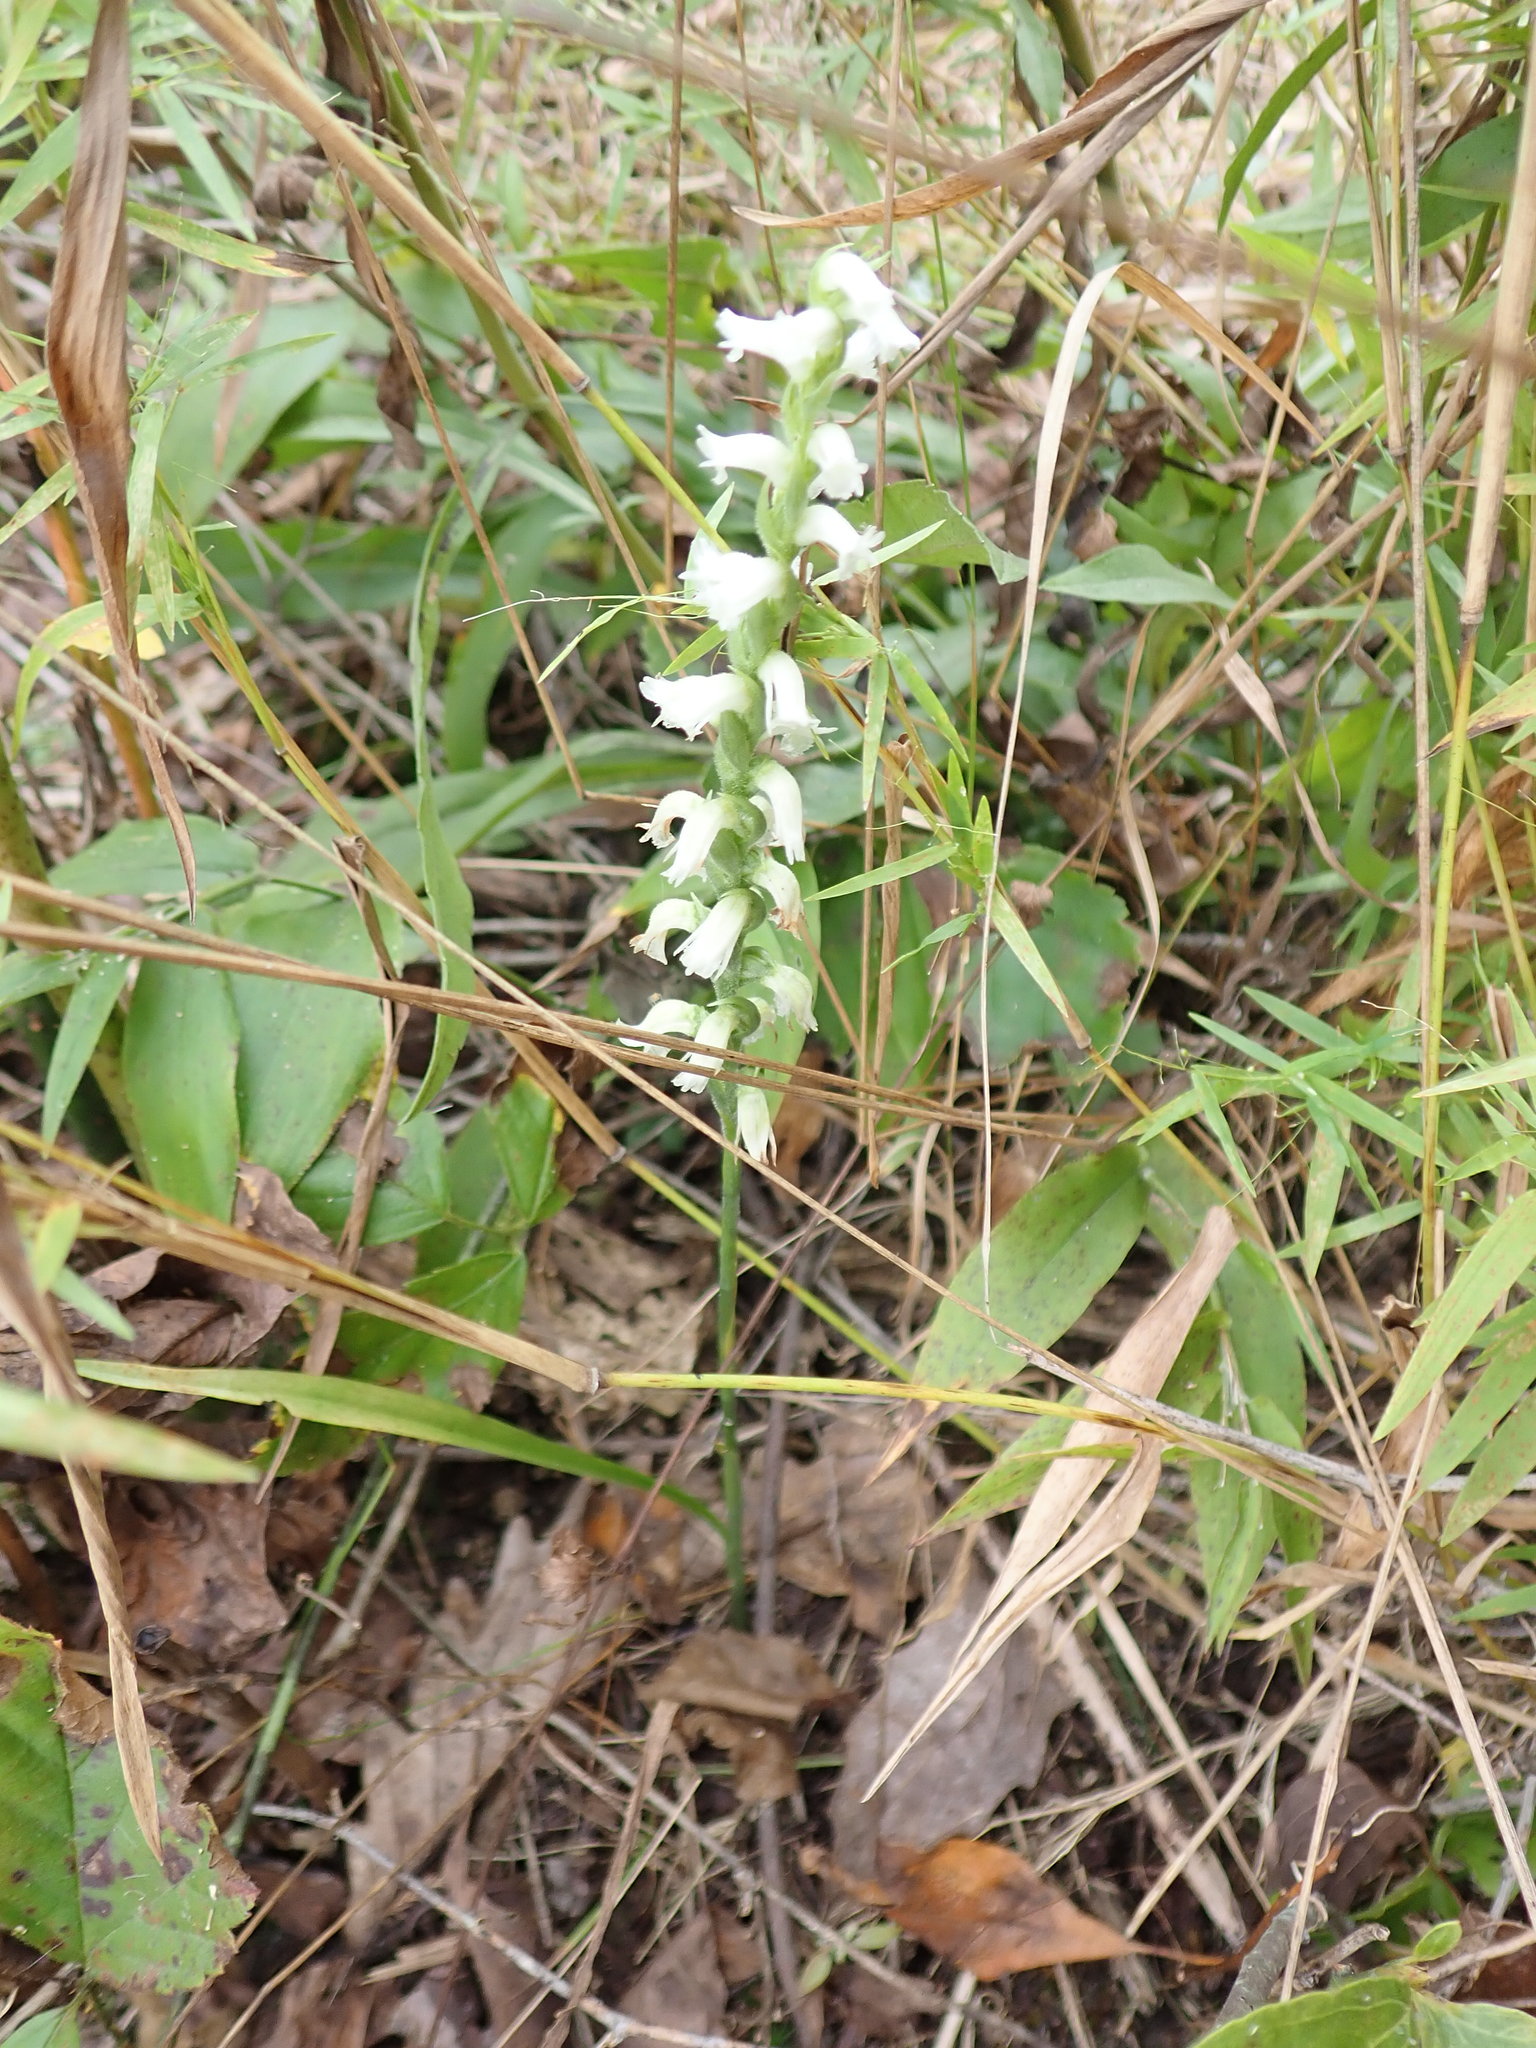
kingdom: Plantae
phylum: Tracheophyta
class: Liliopsida
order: Asparagales
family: Orchidaceae
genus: Spiranthes
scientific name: Spiranthes ochroleuca
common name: Yellow ladies'-tresses
